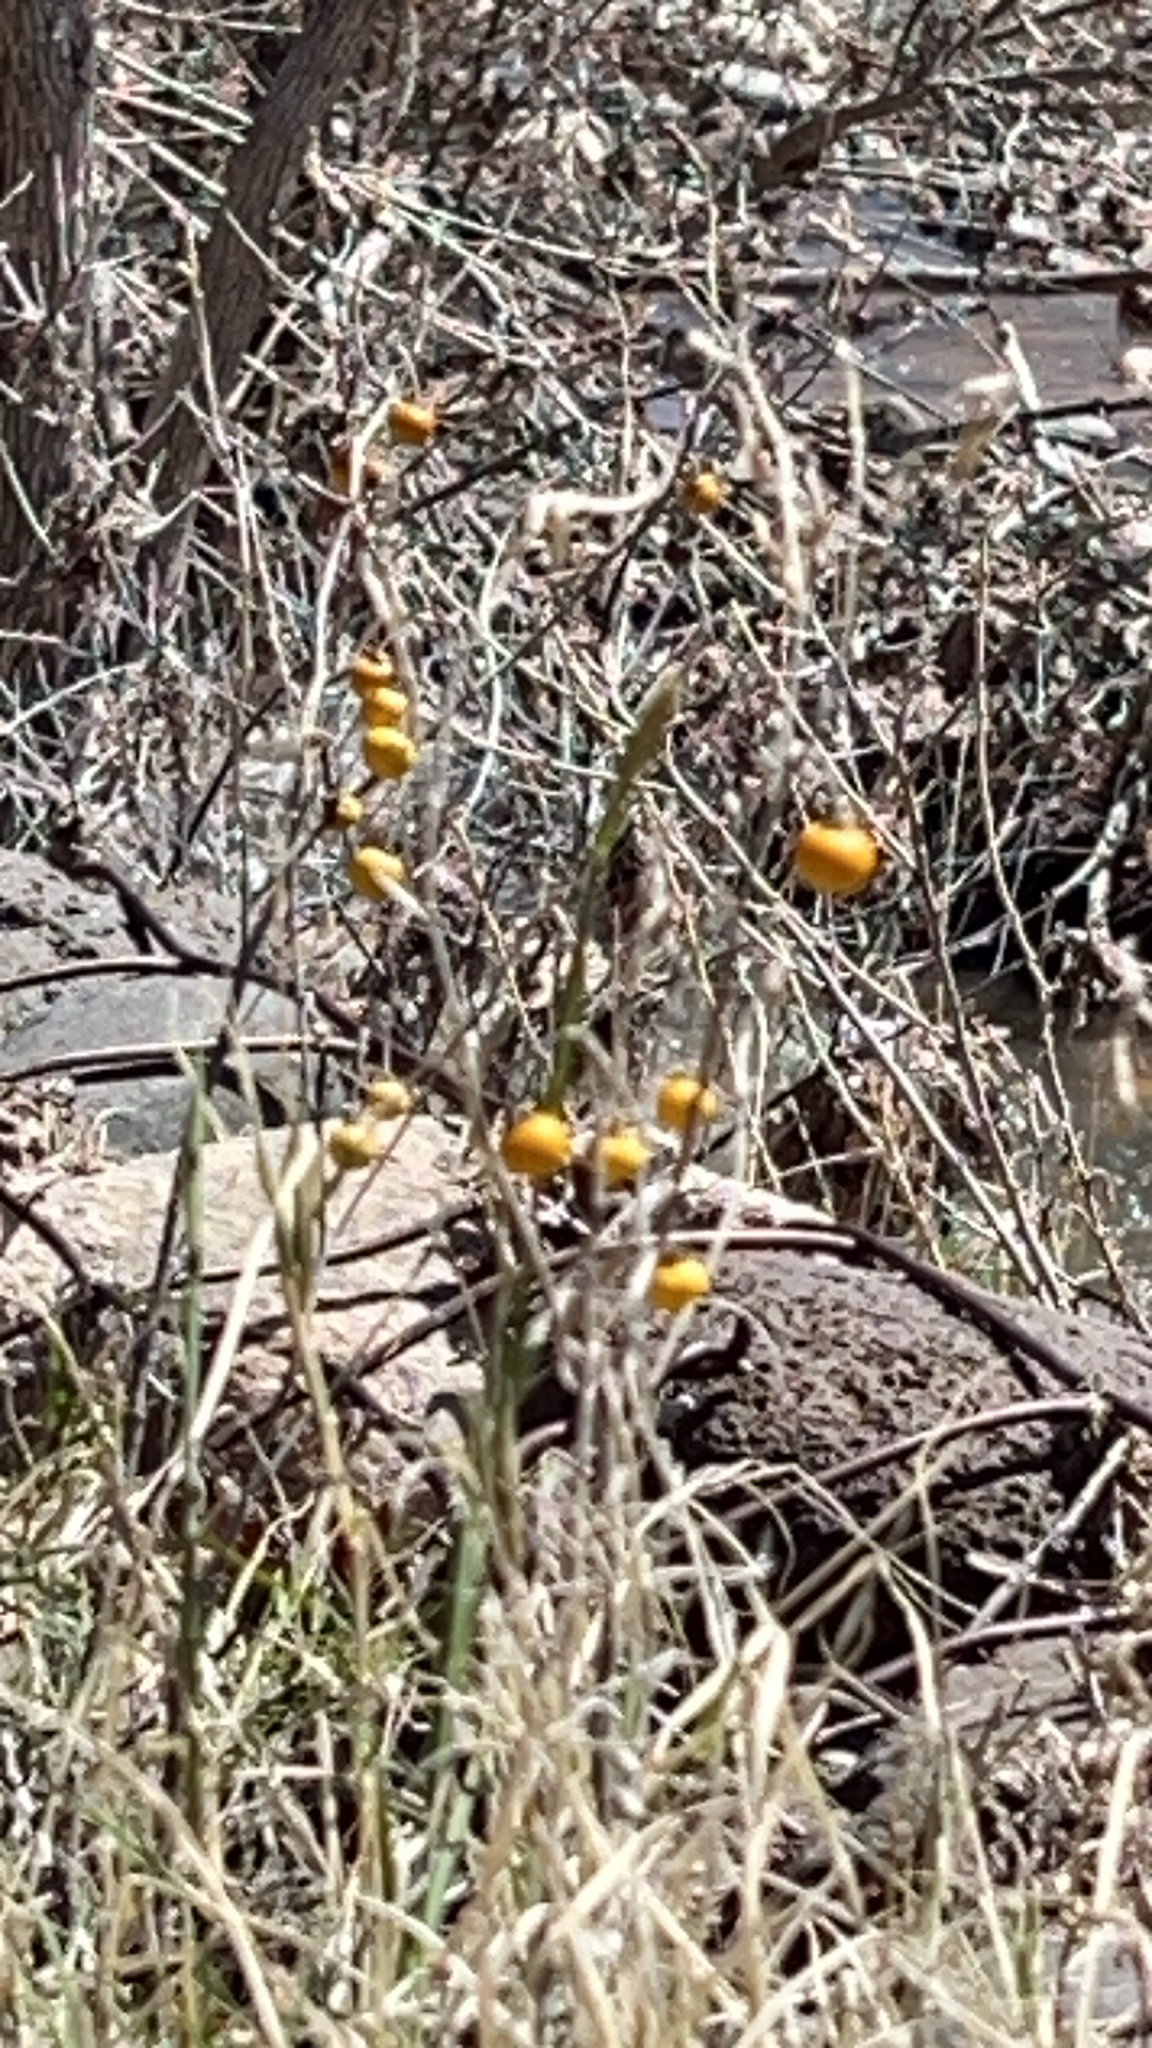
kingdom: Plantae
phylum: Tracheophyta
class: Magnoliopsida
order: Solanales
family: Solanaceae
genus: Solanum
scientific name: Solanum elaeagnifolium
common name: Silverleaf nightshade
